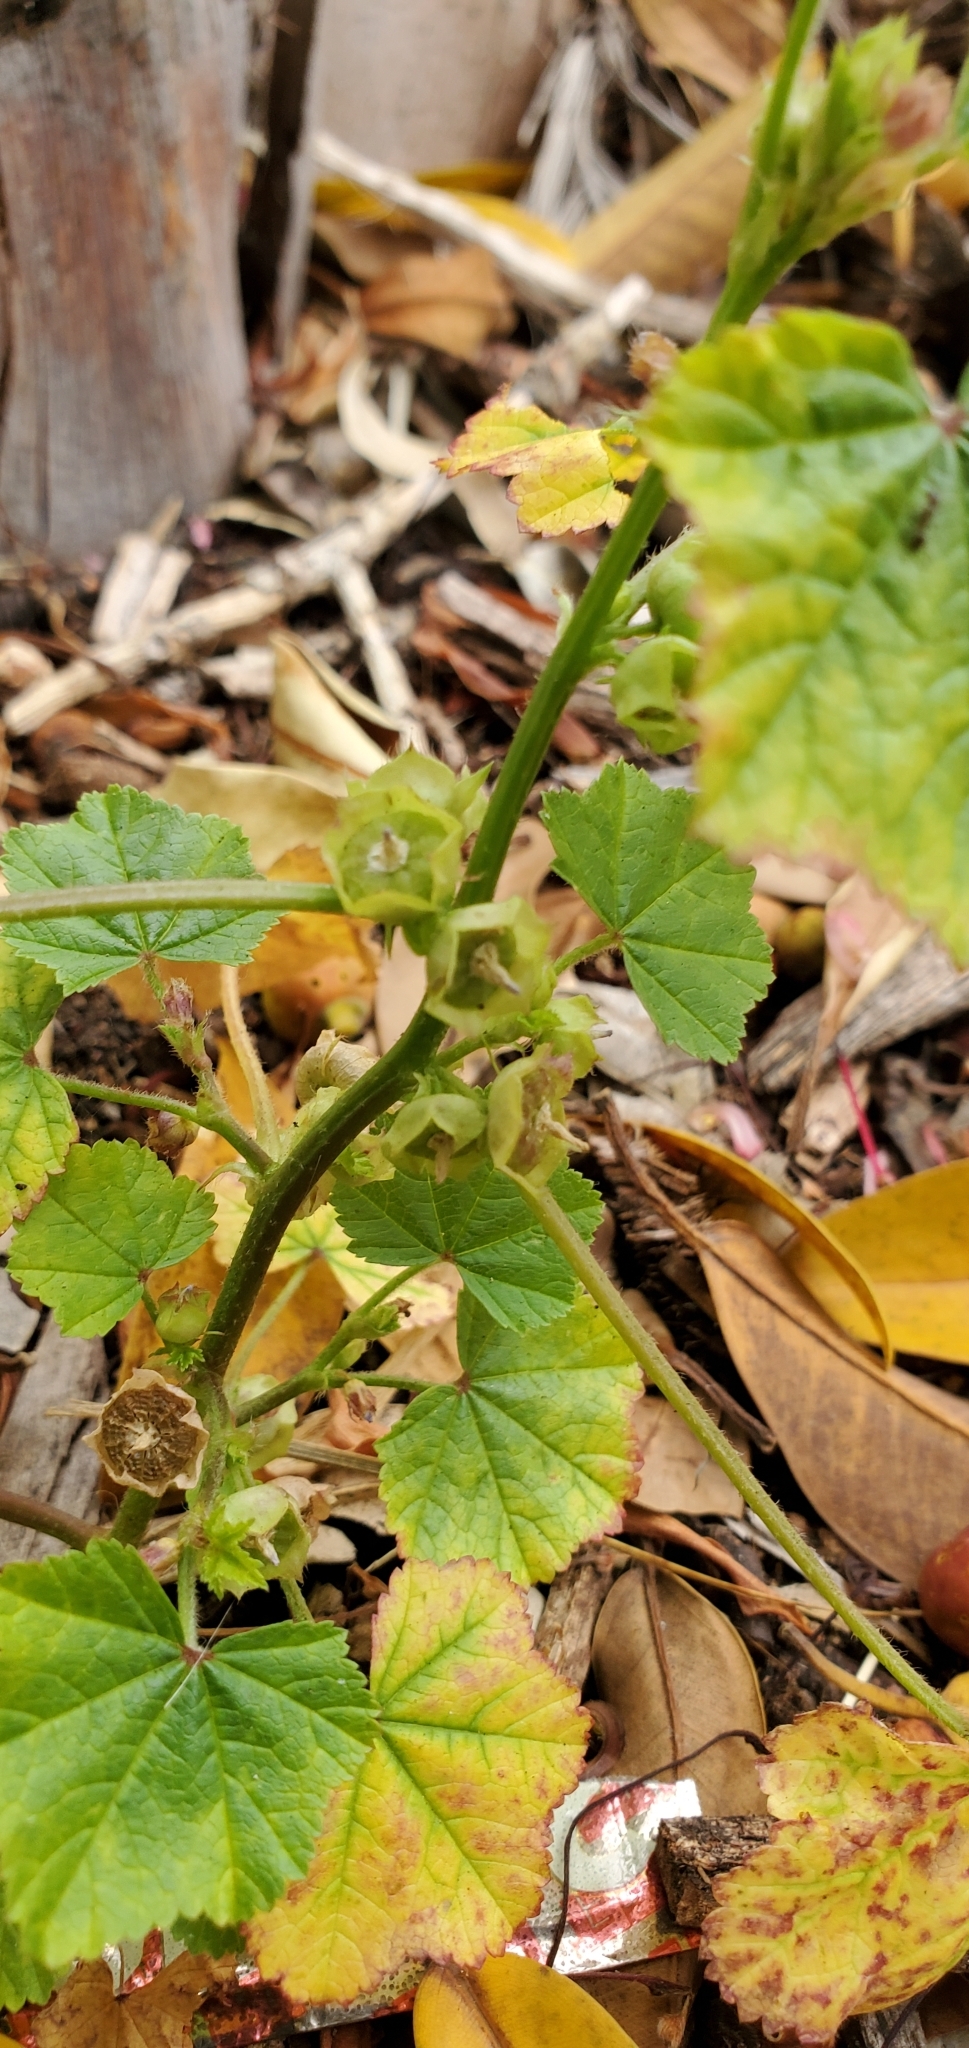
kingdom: Plantae
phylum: Tracheophyta
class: Magnoliopsida
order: Malvales
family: Malvaceae
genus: Malva
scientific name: Malva parviflora
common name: Least mallow
